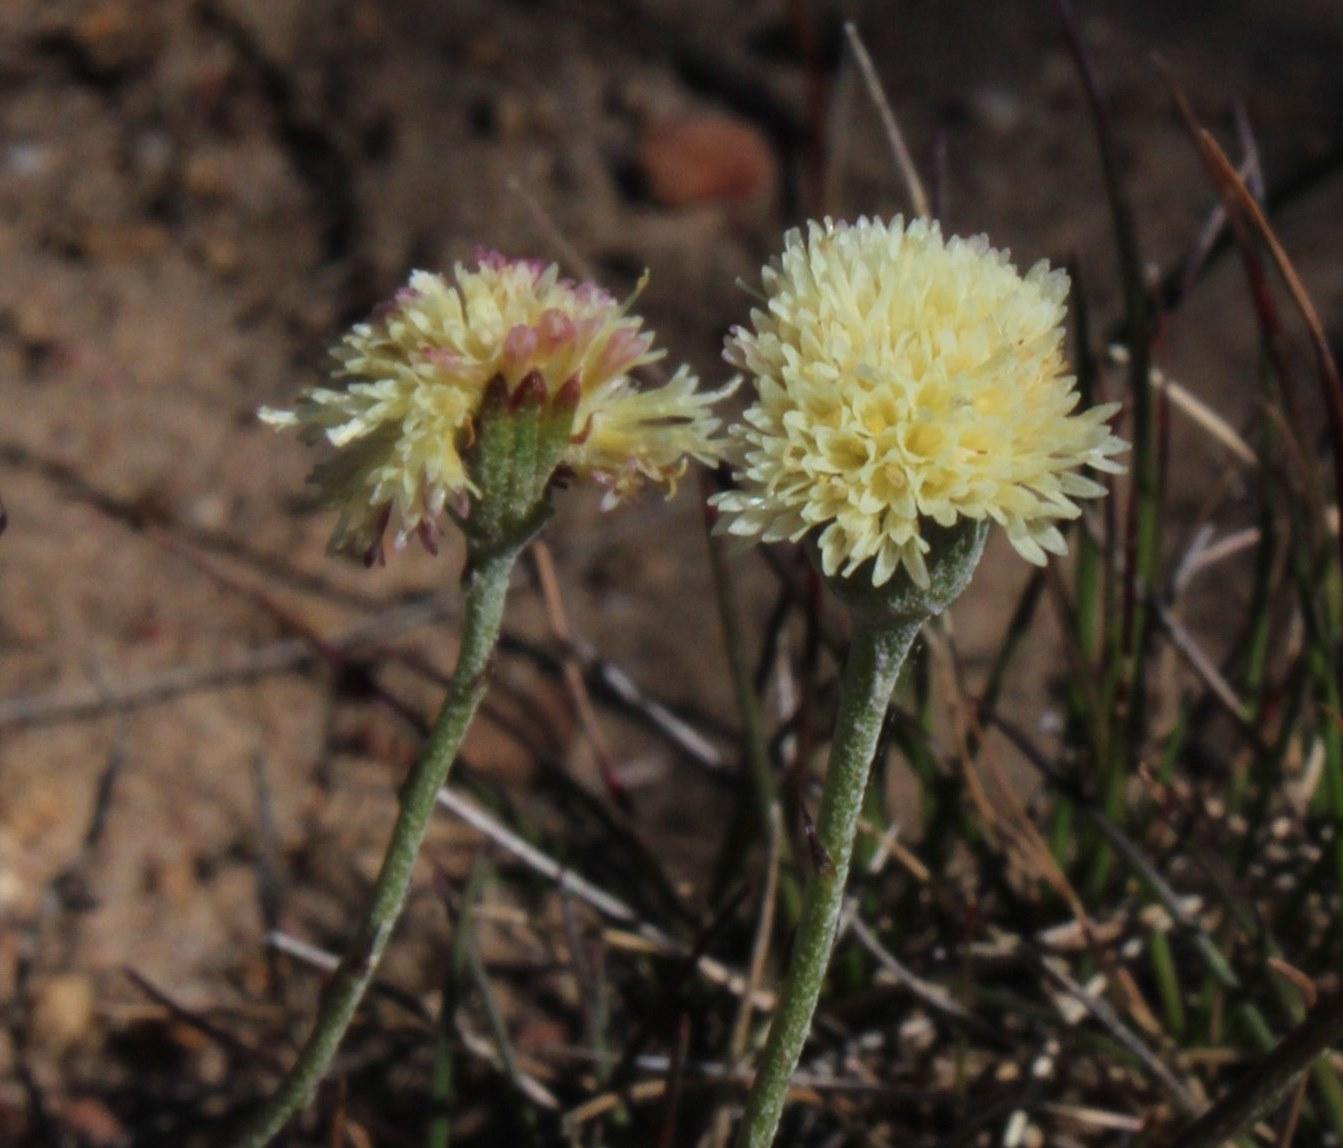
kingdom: Plantae
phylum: Tracheophyta
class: Magnoliopsida
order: Asterales
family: Asteraceae
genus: Bolandia
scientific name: Bolandia pinnatifida
